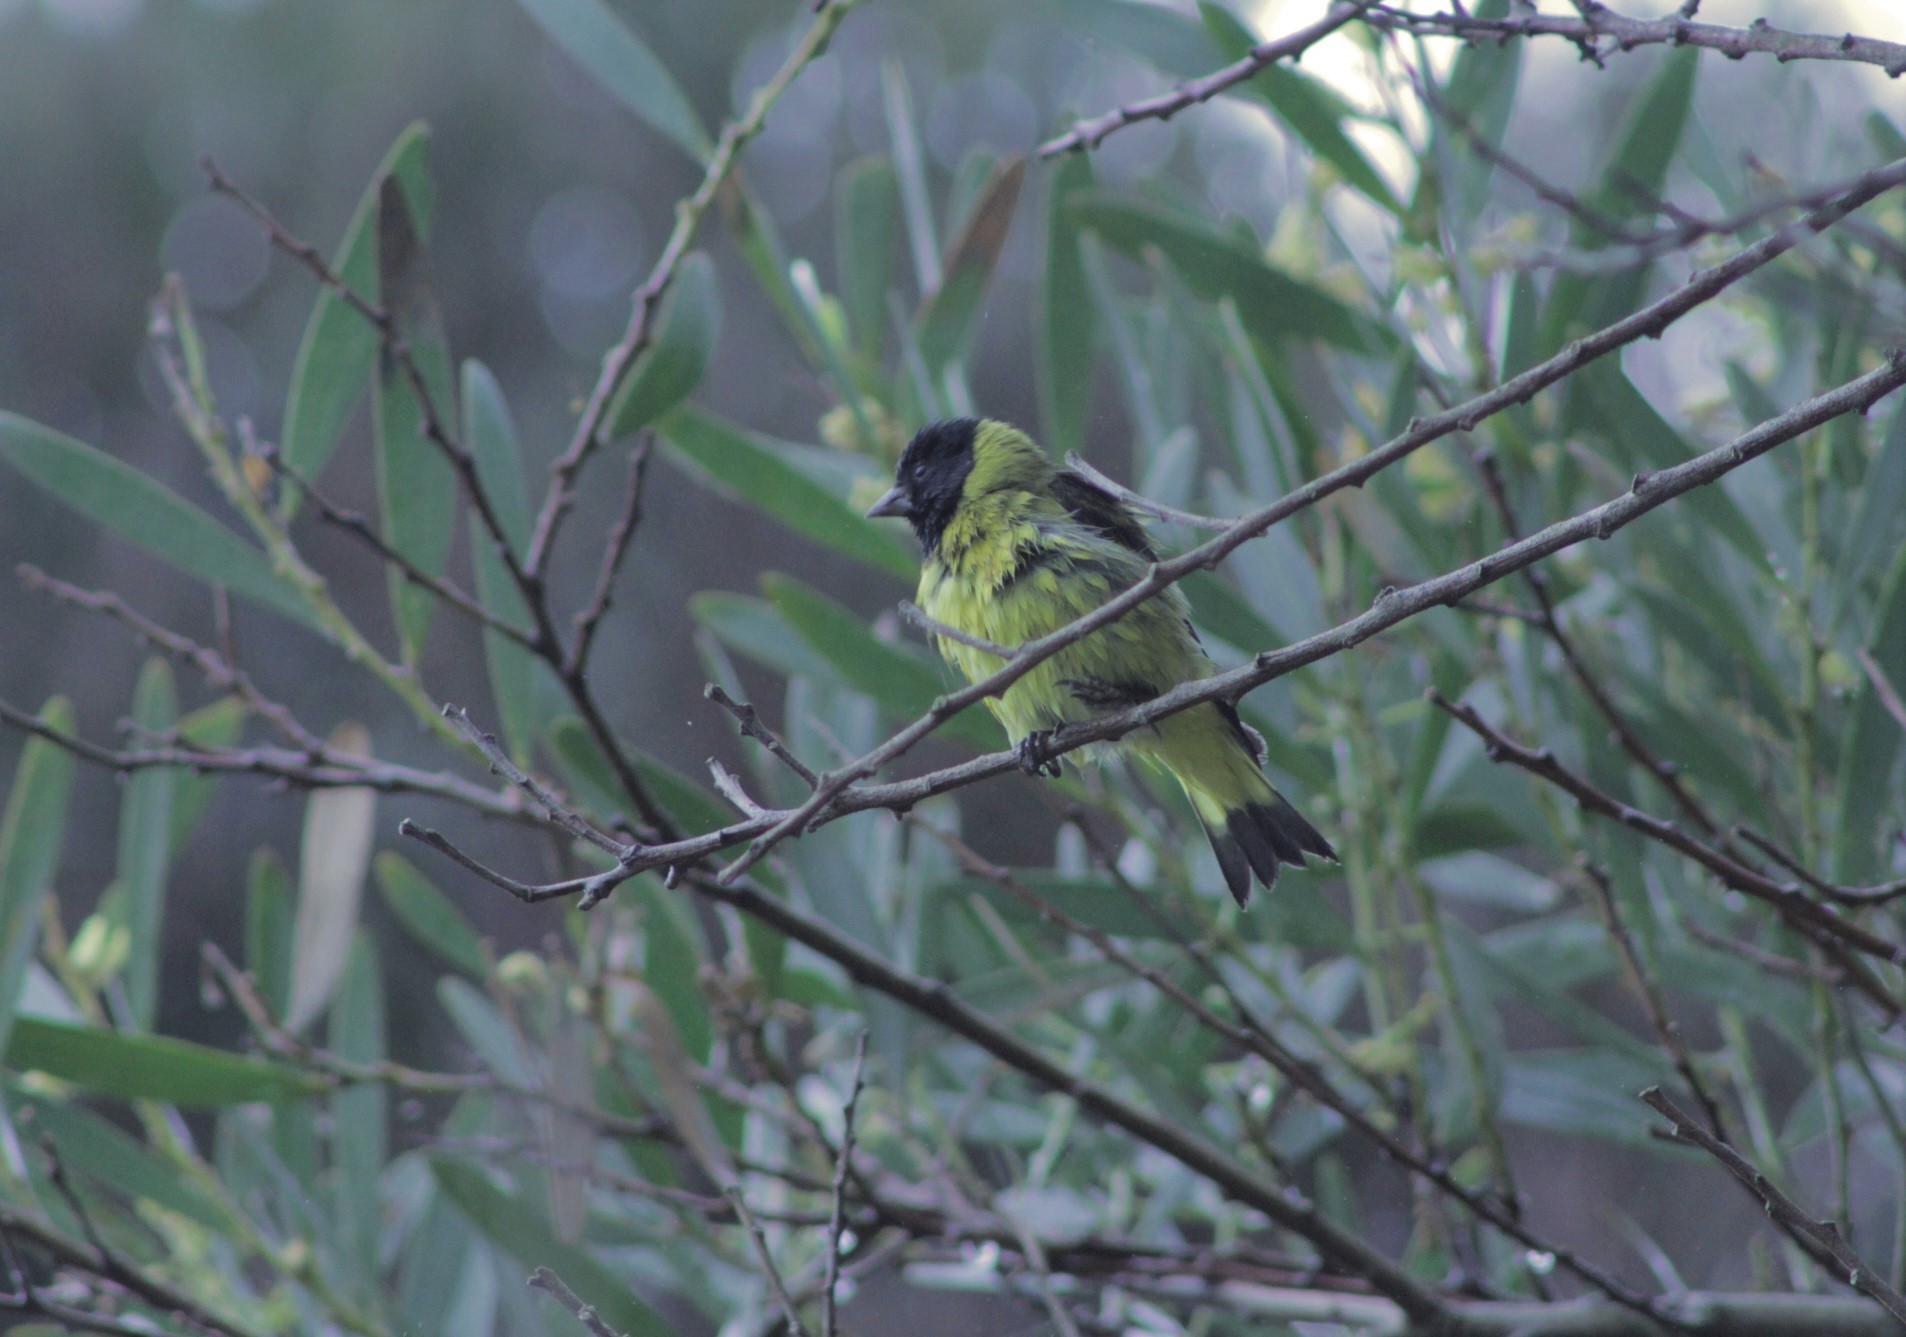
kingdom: Animalia
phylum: Chordata
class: Aves
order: Passeriformes
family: Fringillidae
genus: Spinus
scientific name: Spinus magellanicus
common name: Hooded siskin
